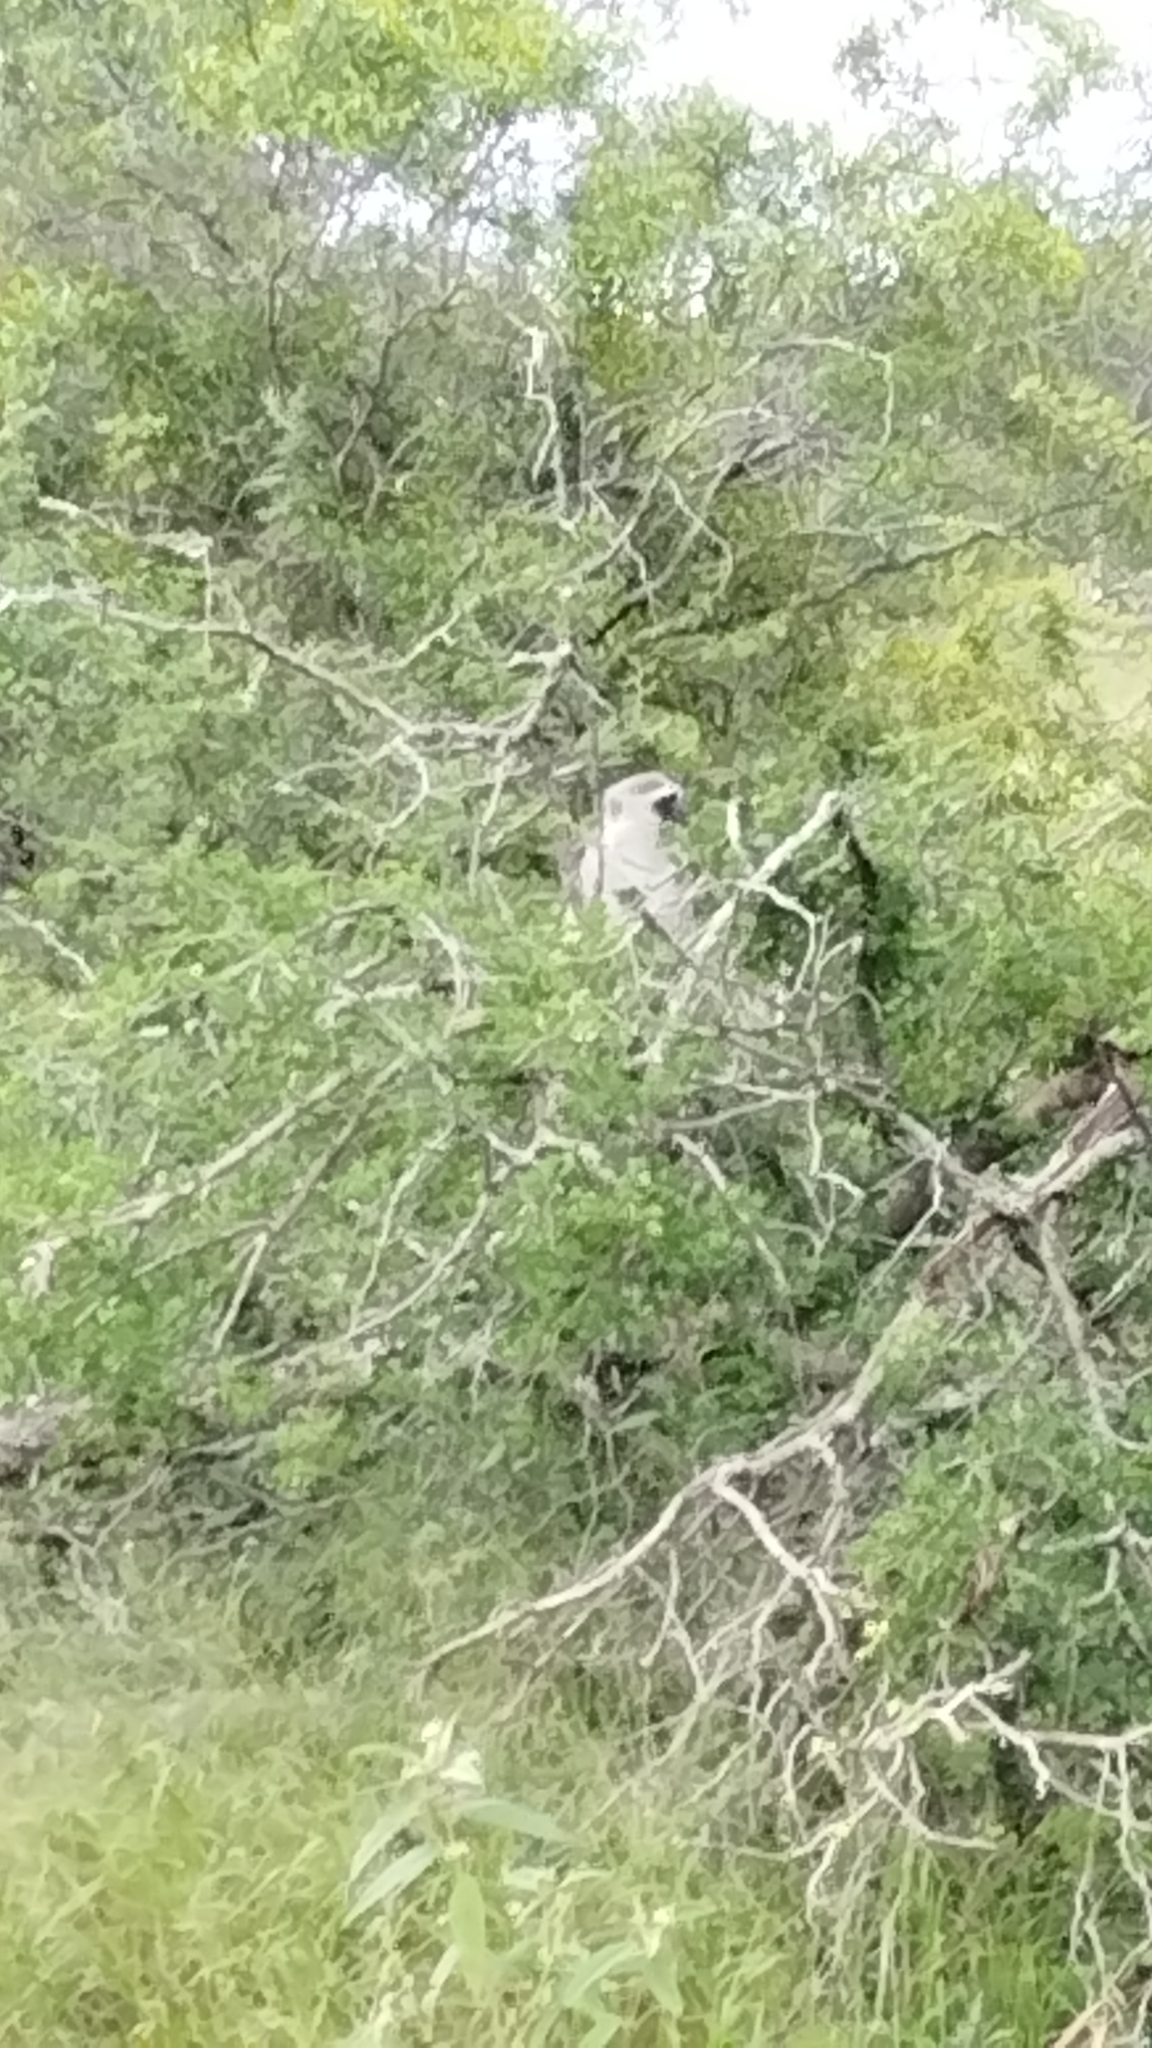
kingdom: Animalia
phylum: Chordata
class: Mammalia
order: Primates
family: Cercopithecidae
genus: Chlorocebus
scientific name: Chlorocebus pygerythrus
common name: Vervet monkey
